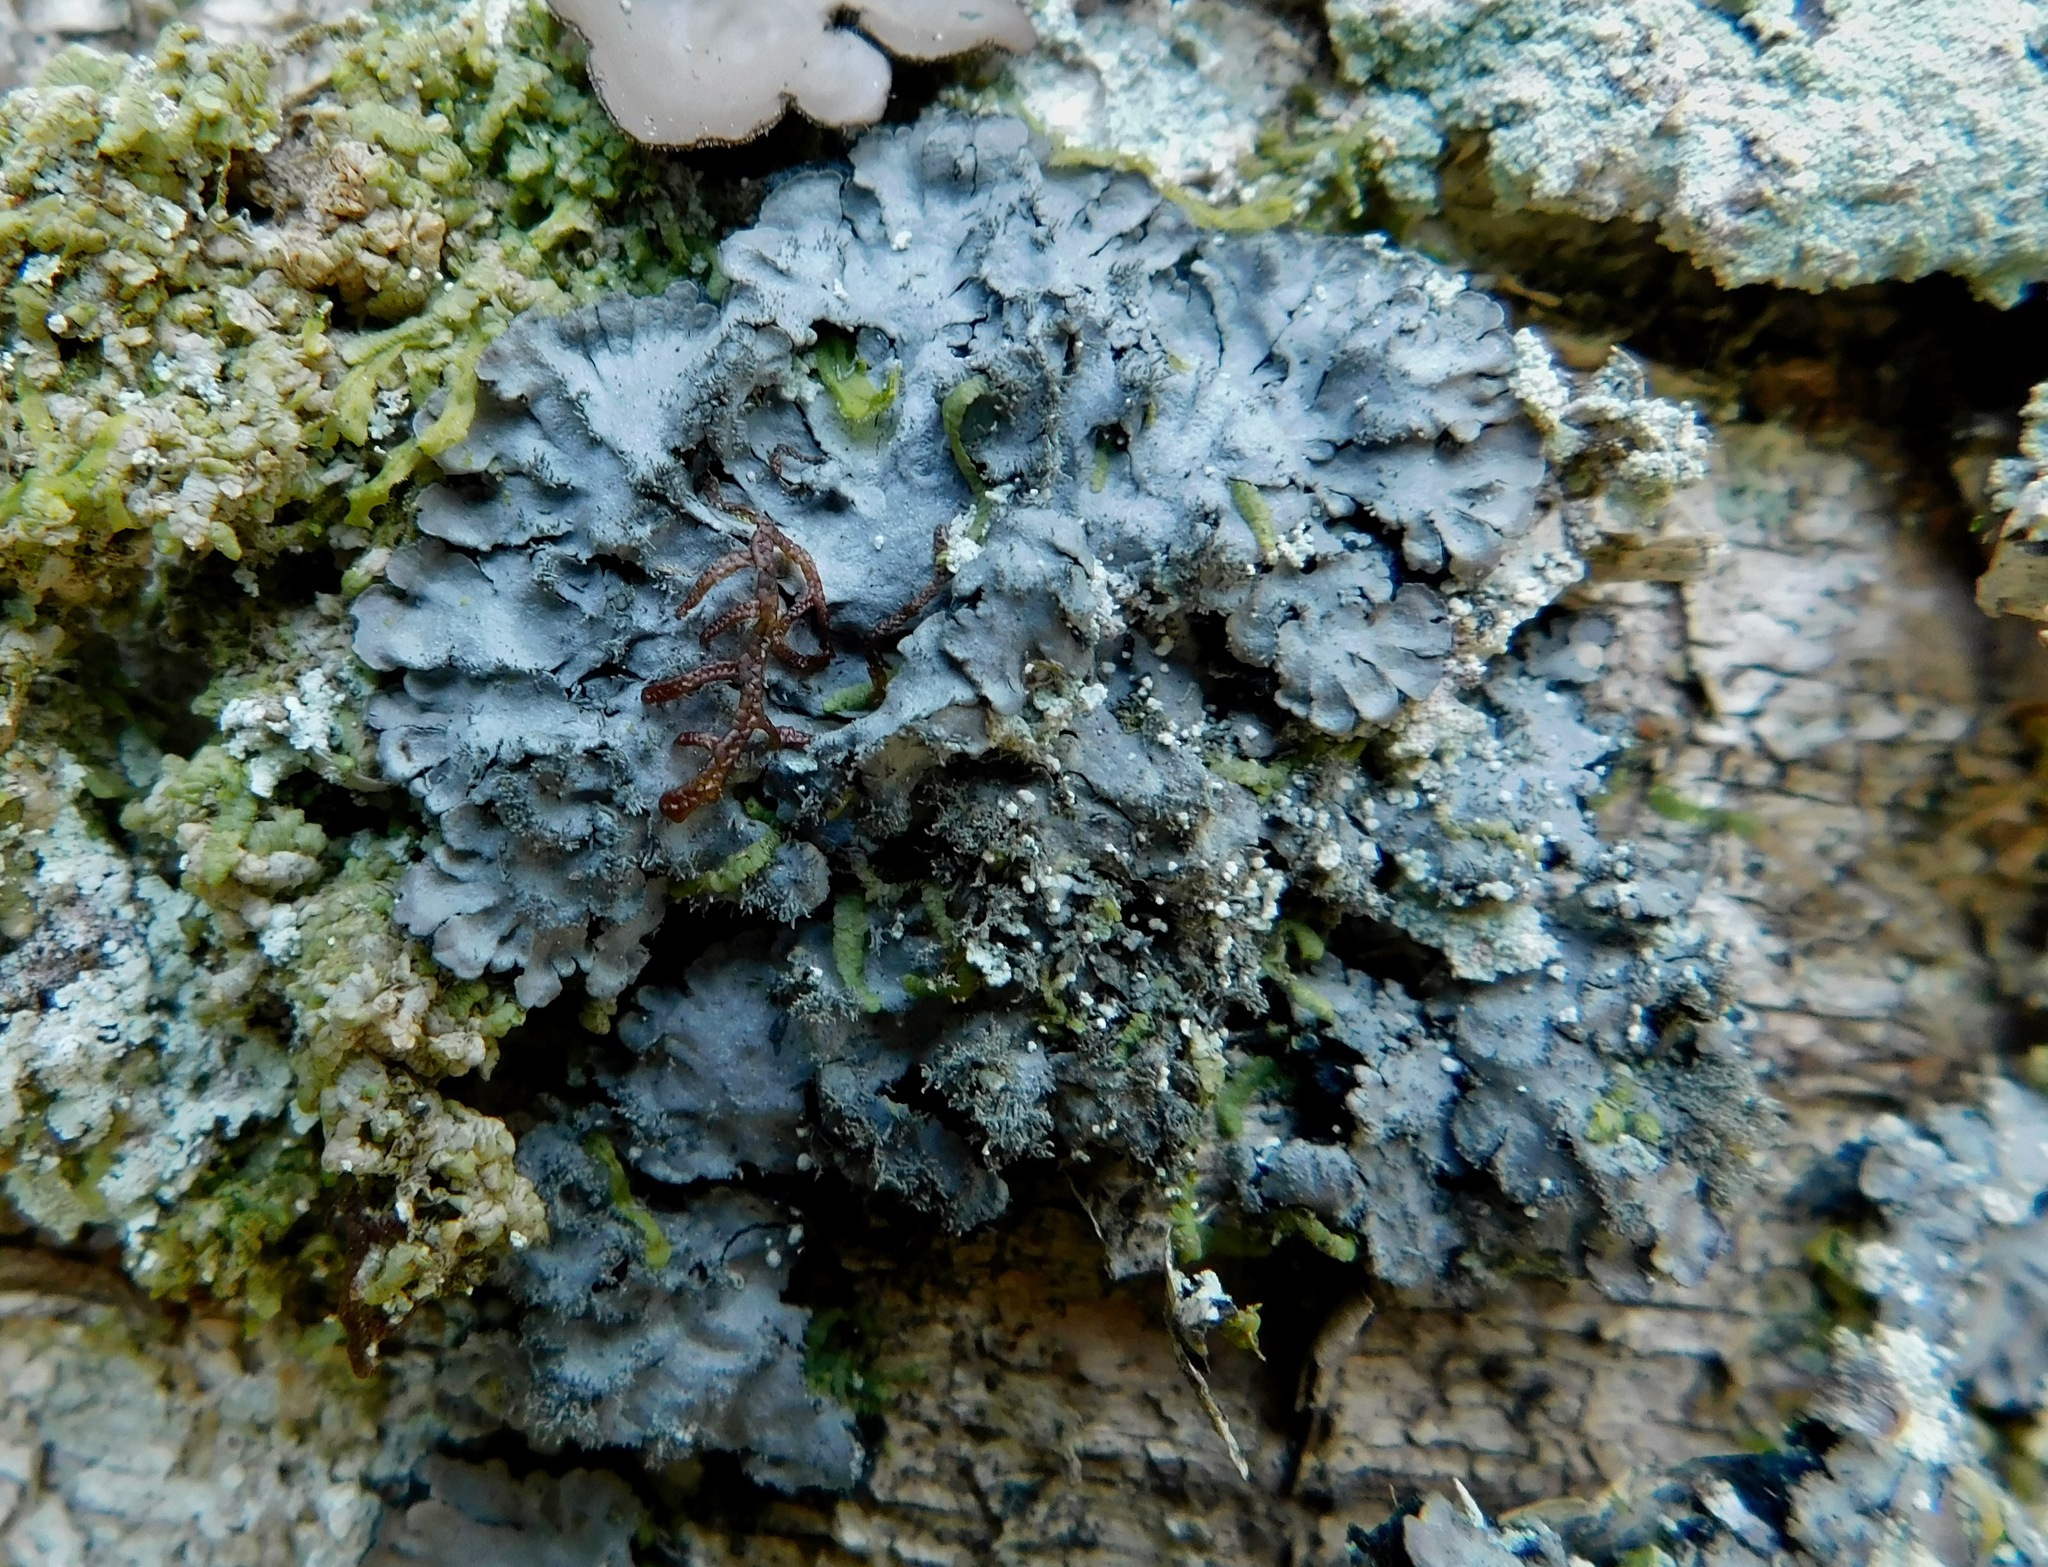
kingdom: Fungi
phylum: Ascomycota
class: Lecanoromycetes
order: Peltigerales
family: Coccocarpiaceae
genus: Coccocarpia
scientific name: Coccocarpia palmicola
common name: Salted shell lichen
